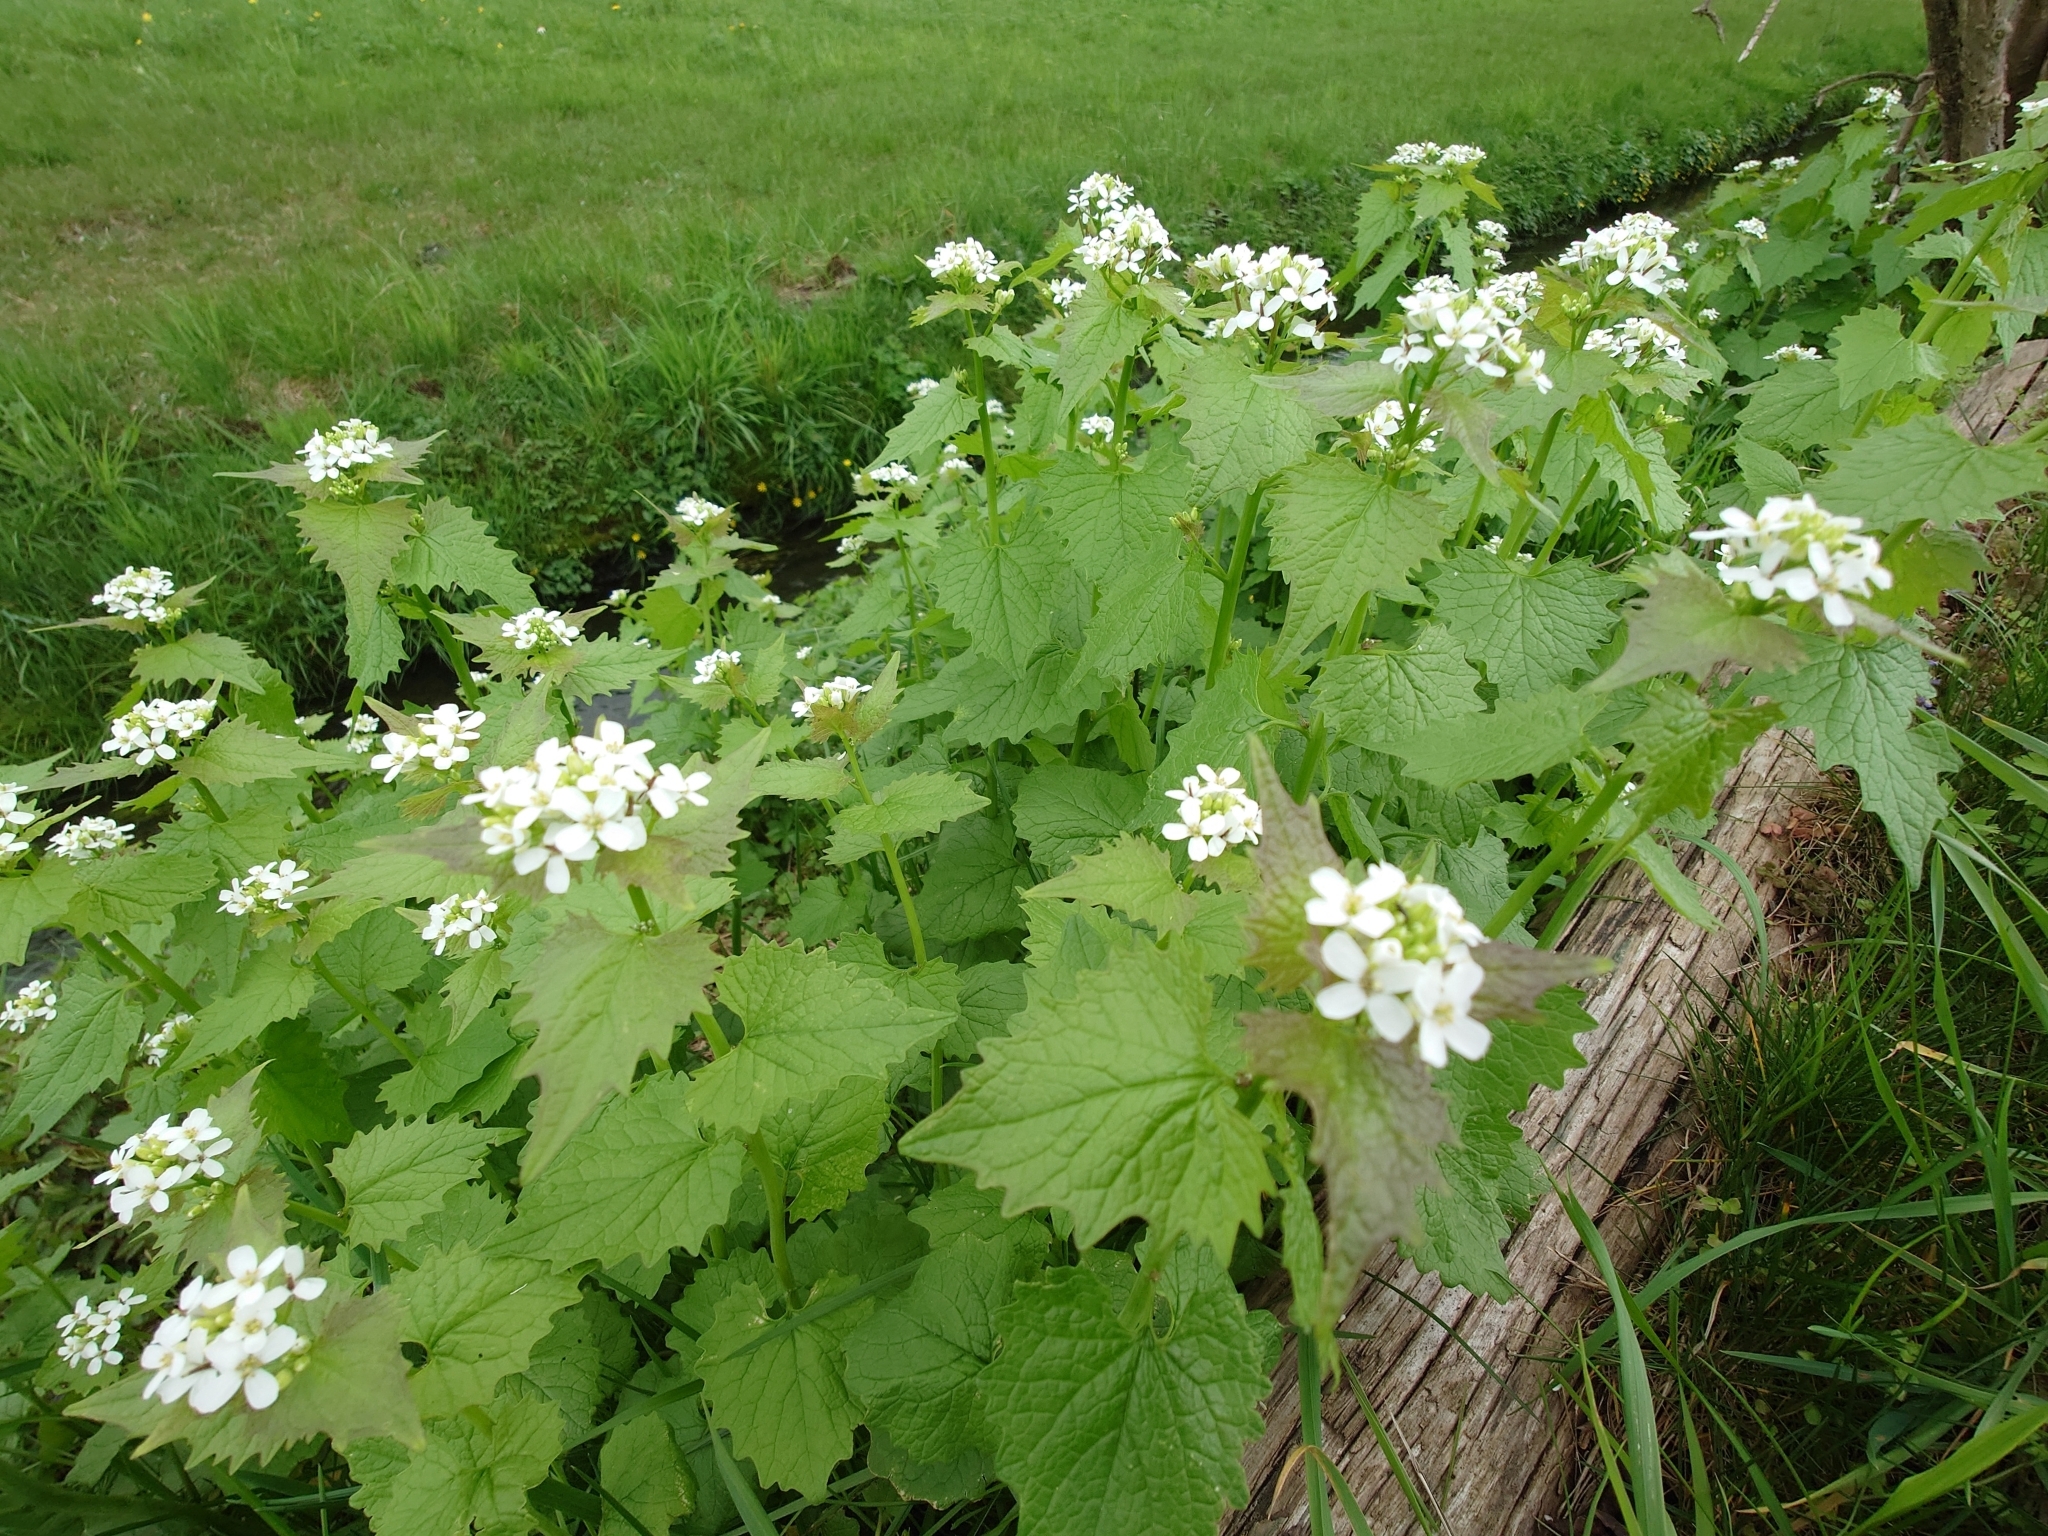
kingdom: Plantae
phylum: Tracheophyta
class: Magnoliopsida
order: Brassicales
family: Brassicaceae
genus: Alliaria
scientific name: Alliaria petiolata
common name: Garlic mustard
